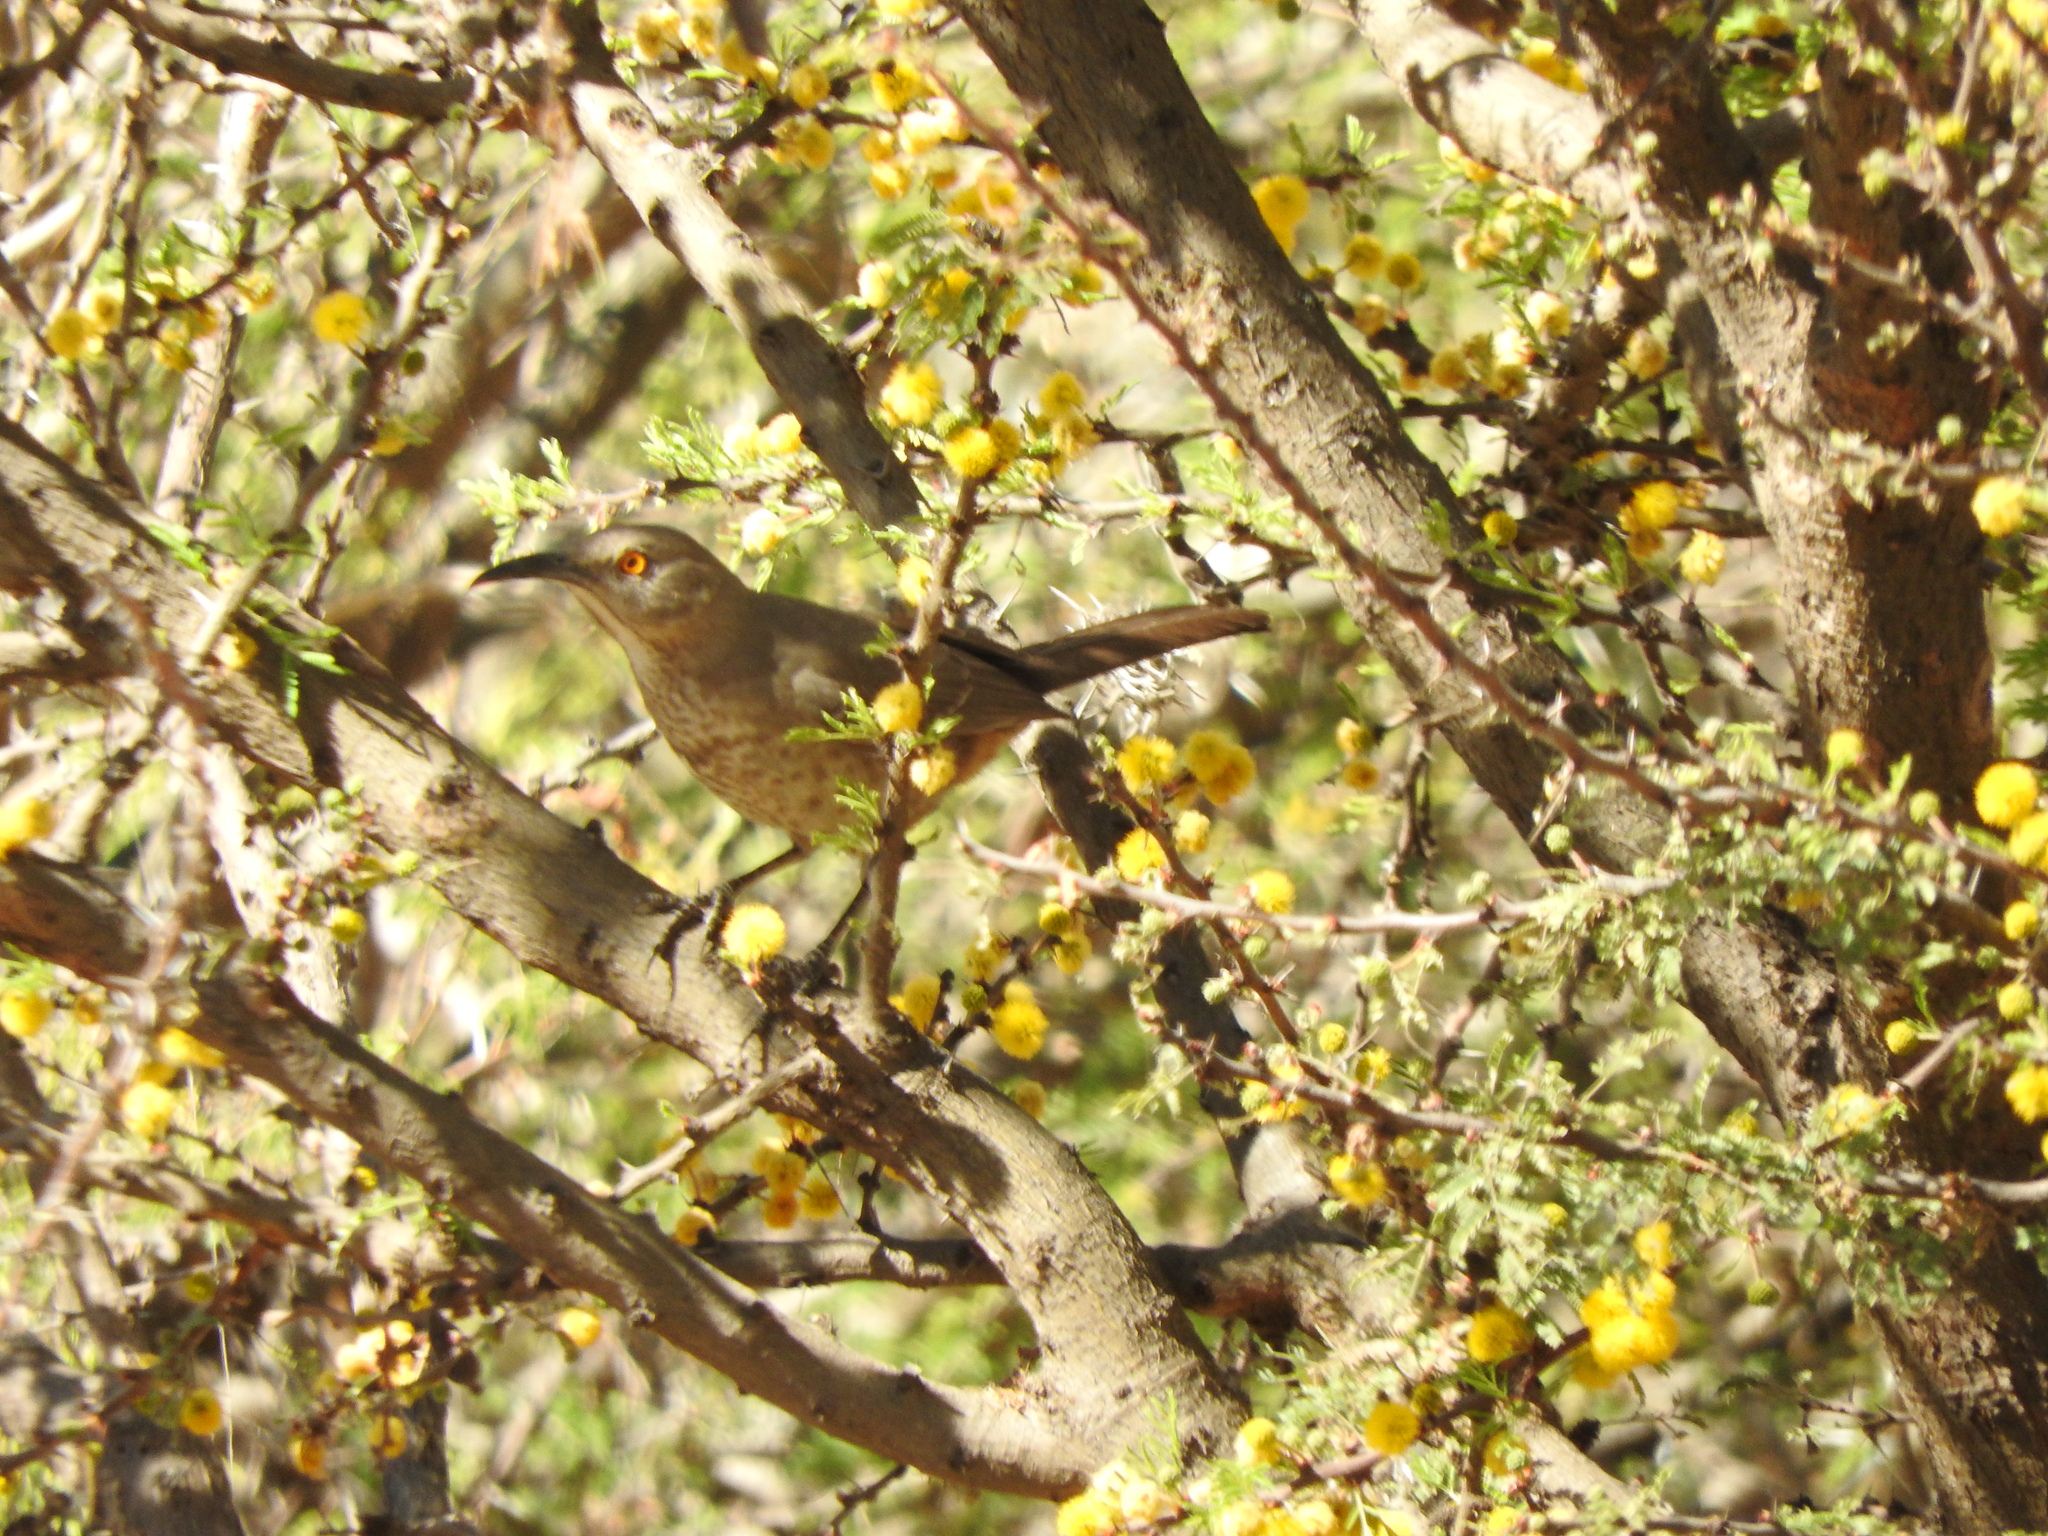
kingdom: Animalia
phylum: Chordata
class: Aves
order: Passeriformes
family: Mimidae
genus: Toxostoma
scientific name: Toxostoma curvirostre
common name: Curve-billed thrasher
